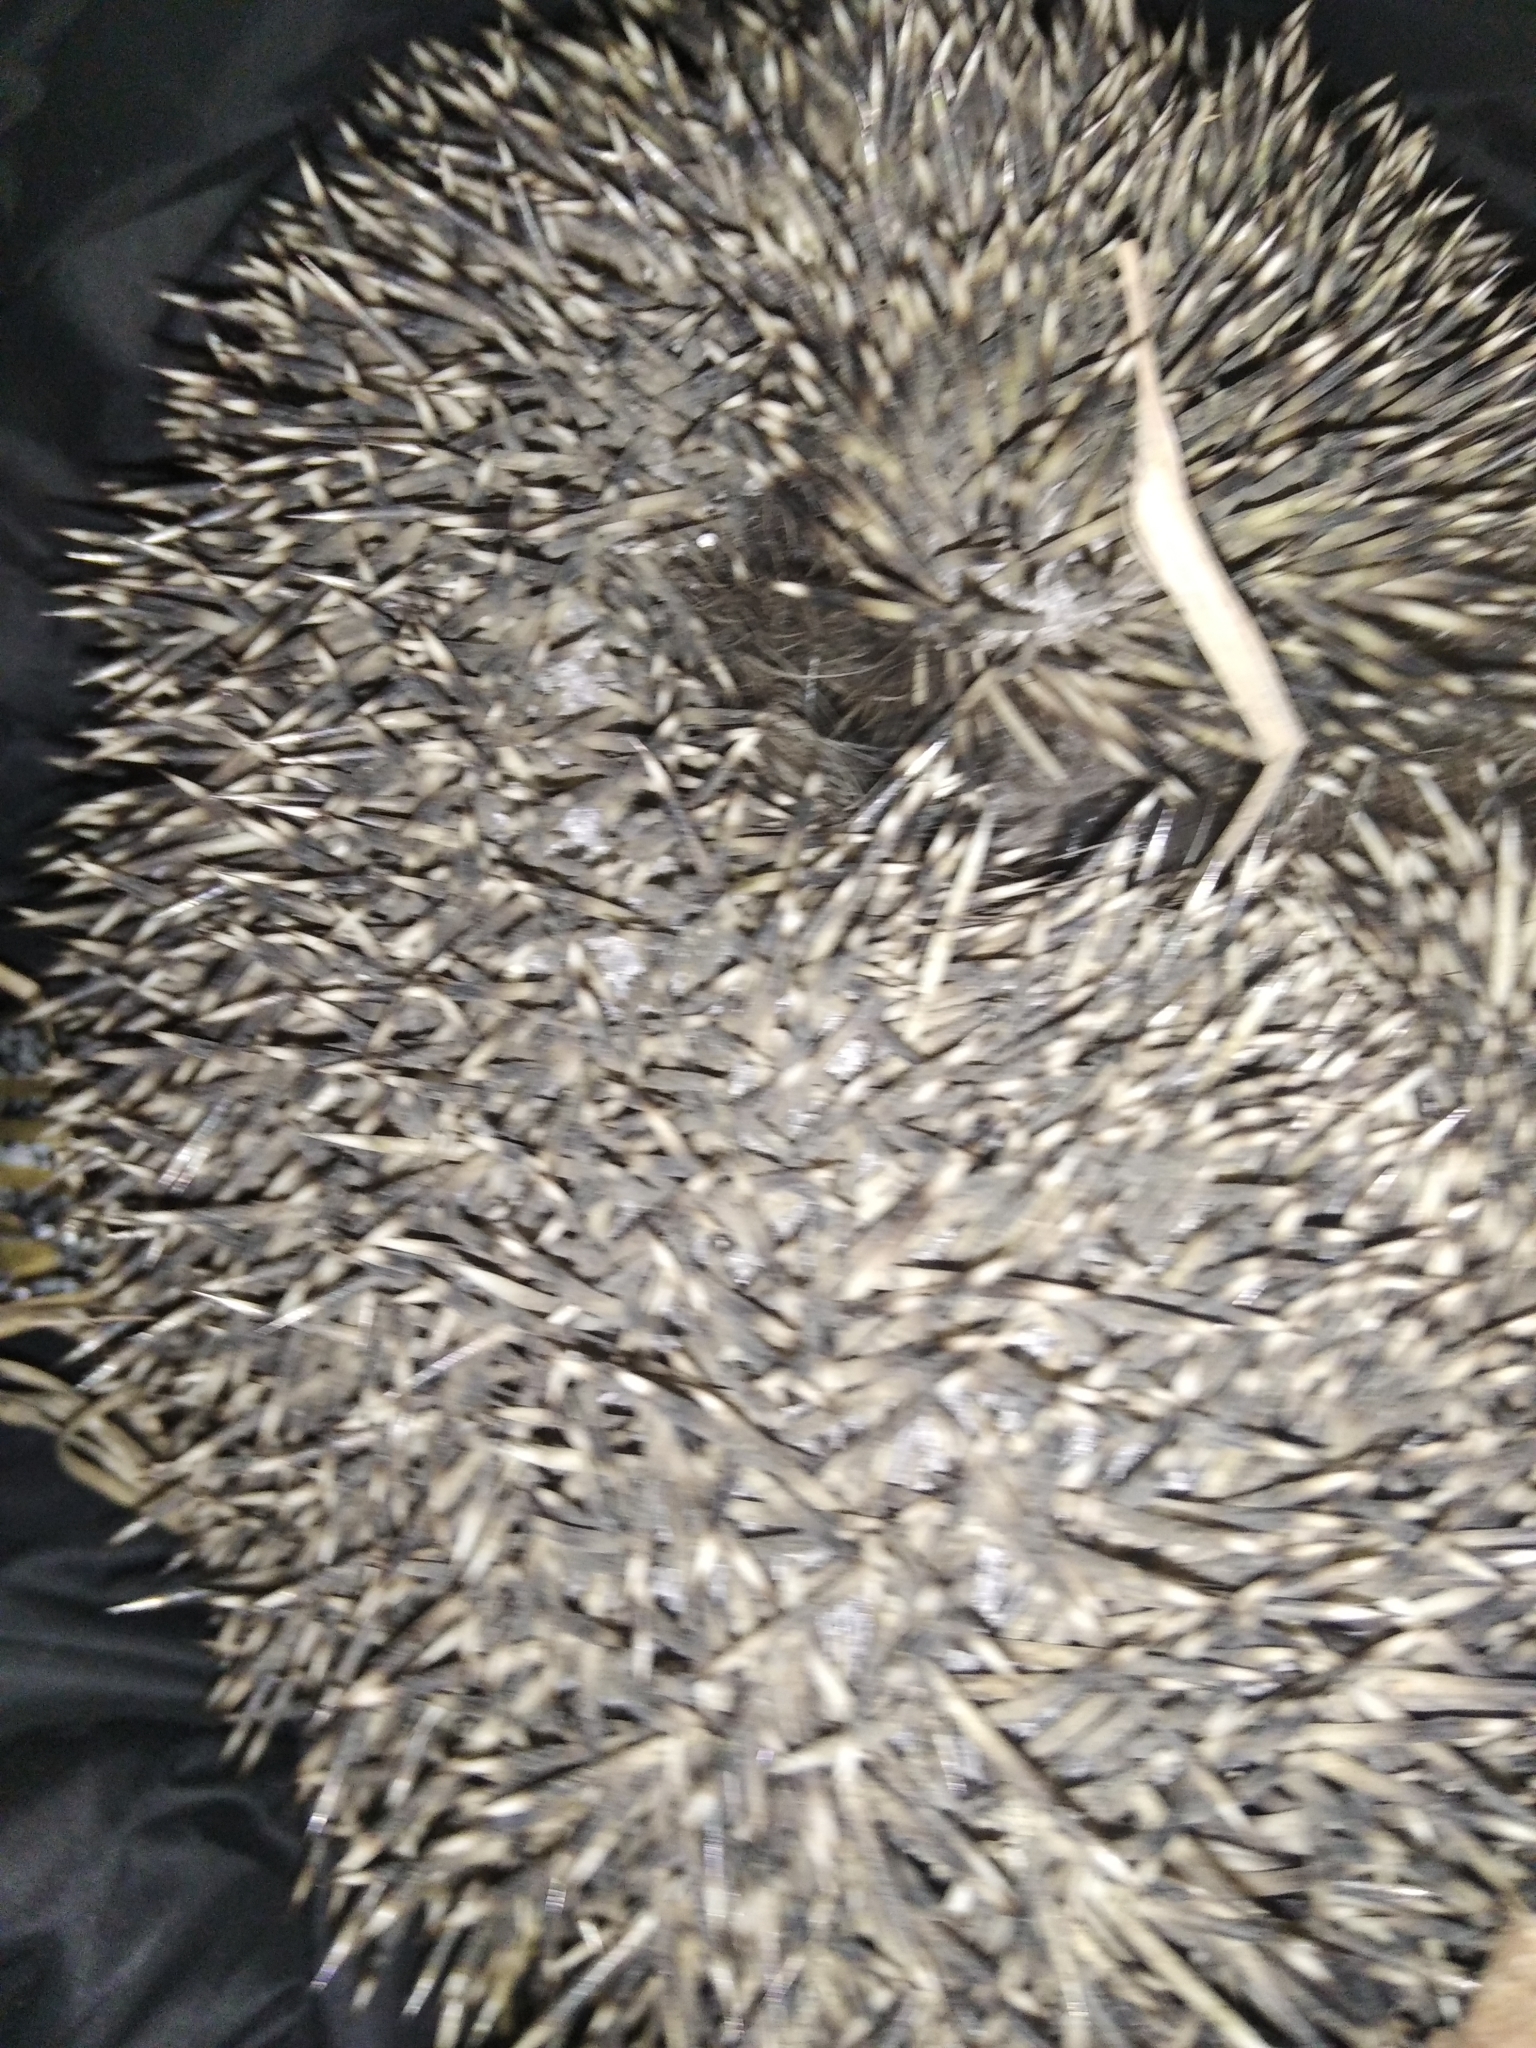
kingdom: Animalia
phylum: Chordata
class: Mammalia
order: Erinaceomorpha
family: Erinaceidae
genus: Erinaceus
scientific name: Erinaceus roumanicus
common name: Northern white-breasted hedgehog
